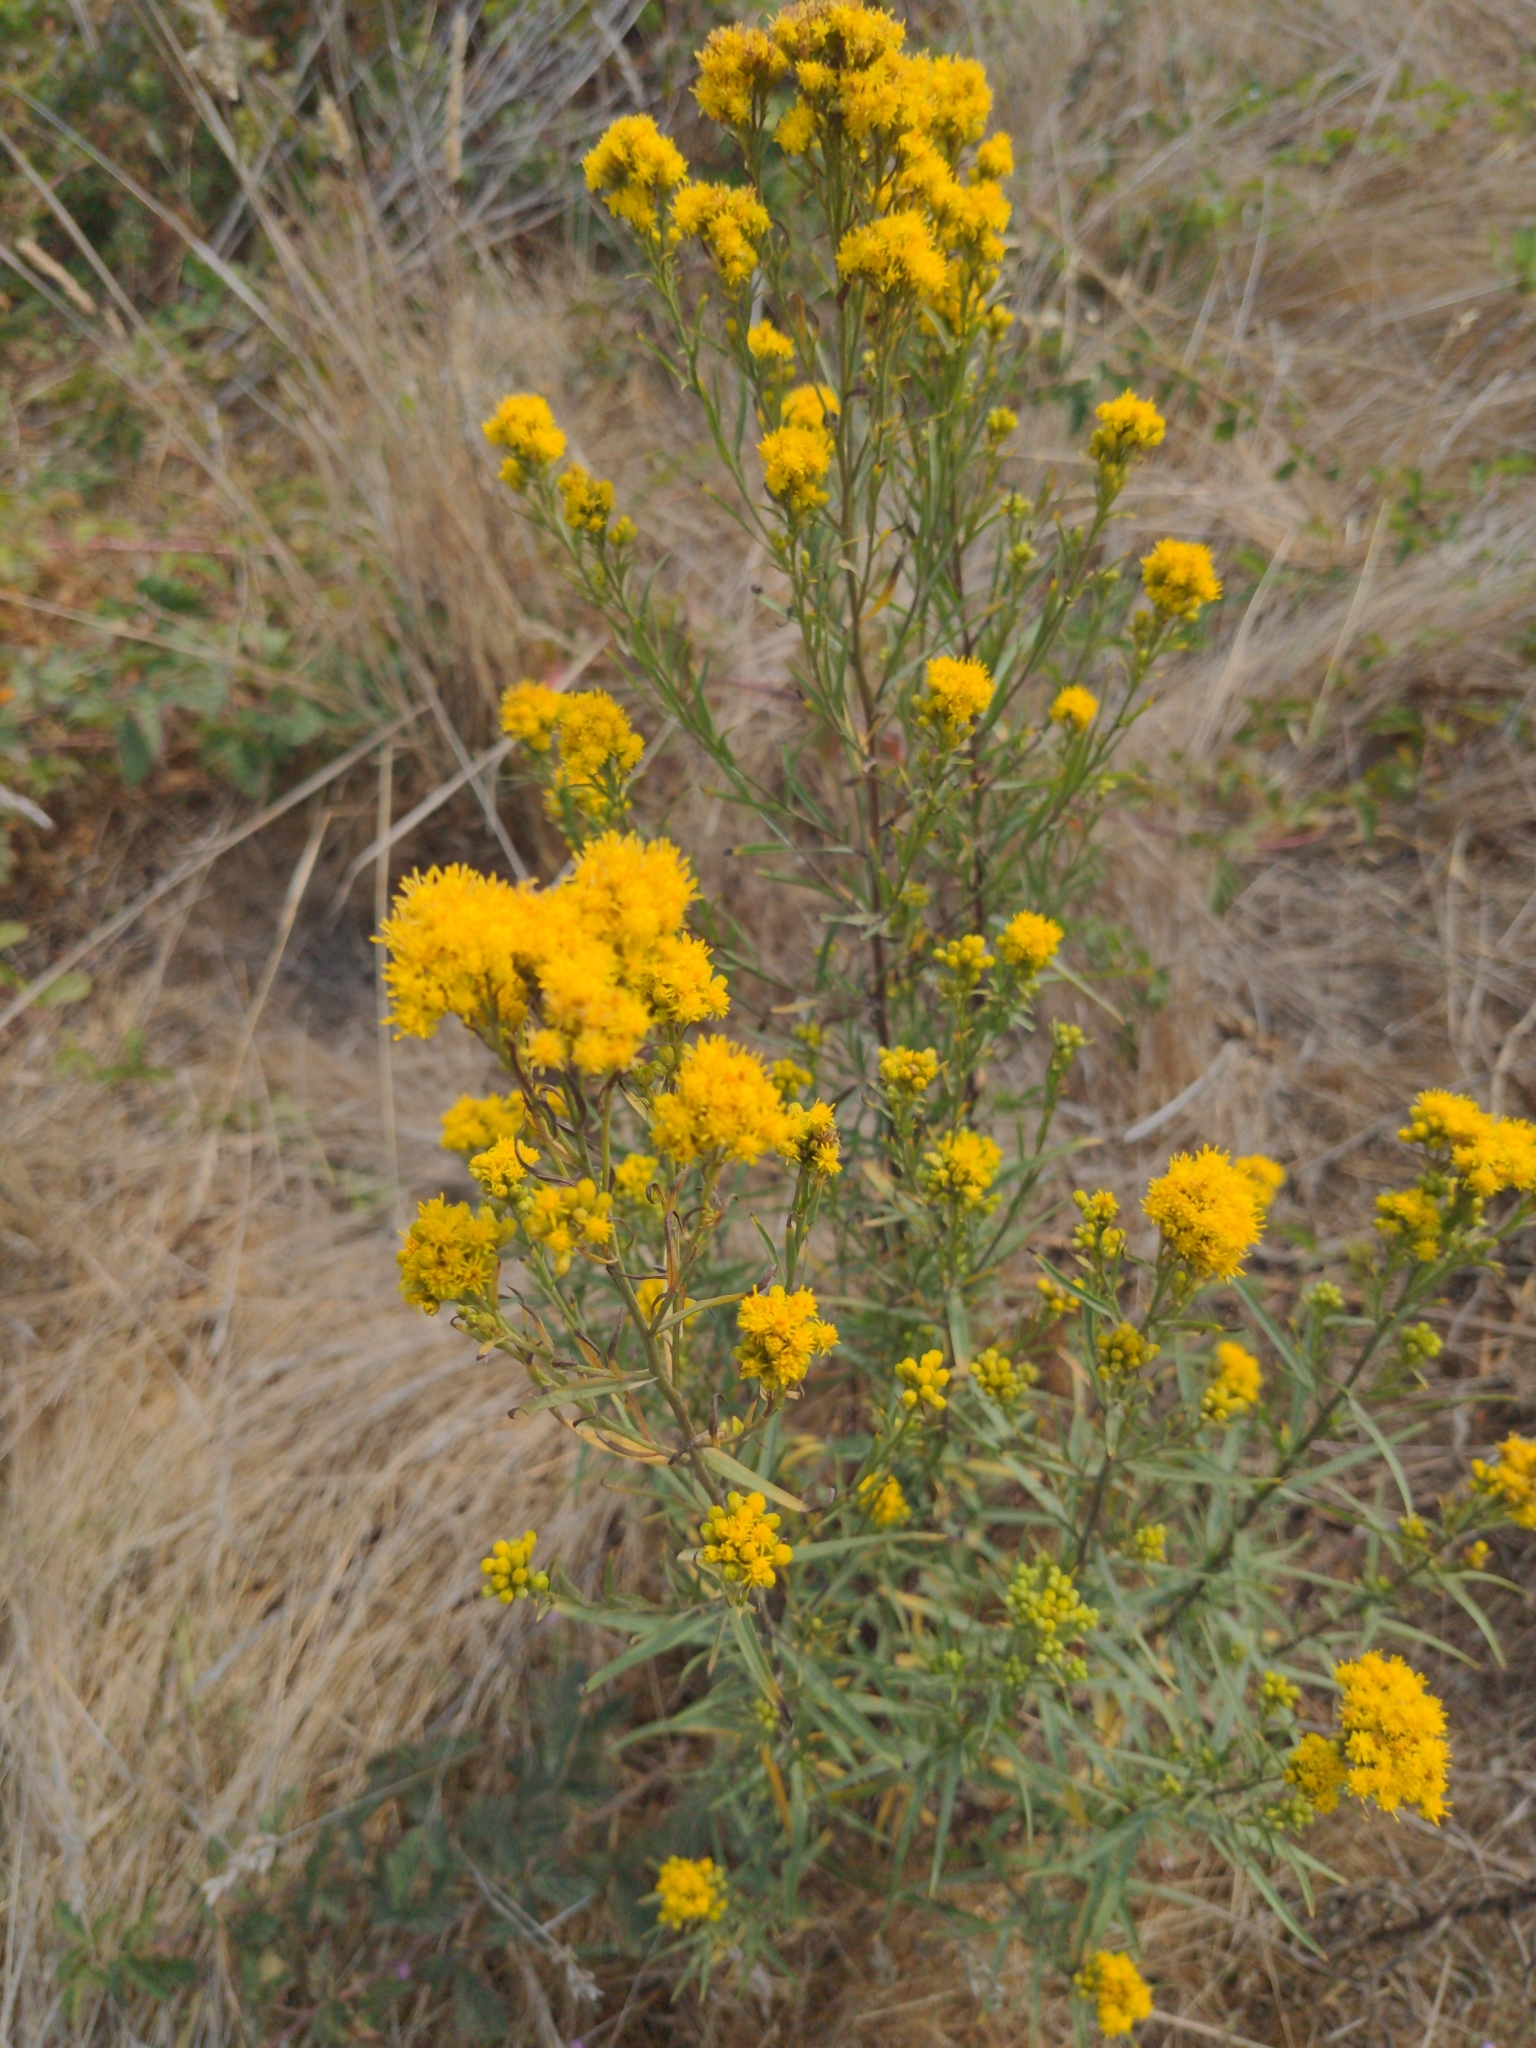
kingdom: Plantae
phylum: Tracheophyta
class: Magnoliopsida
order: Asterales
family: Asteraceae
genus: Euthamia
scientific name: Euthamia occidentalis
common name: Western goldentop
